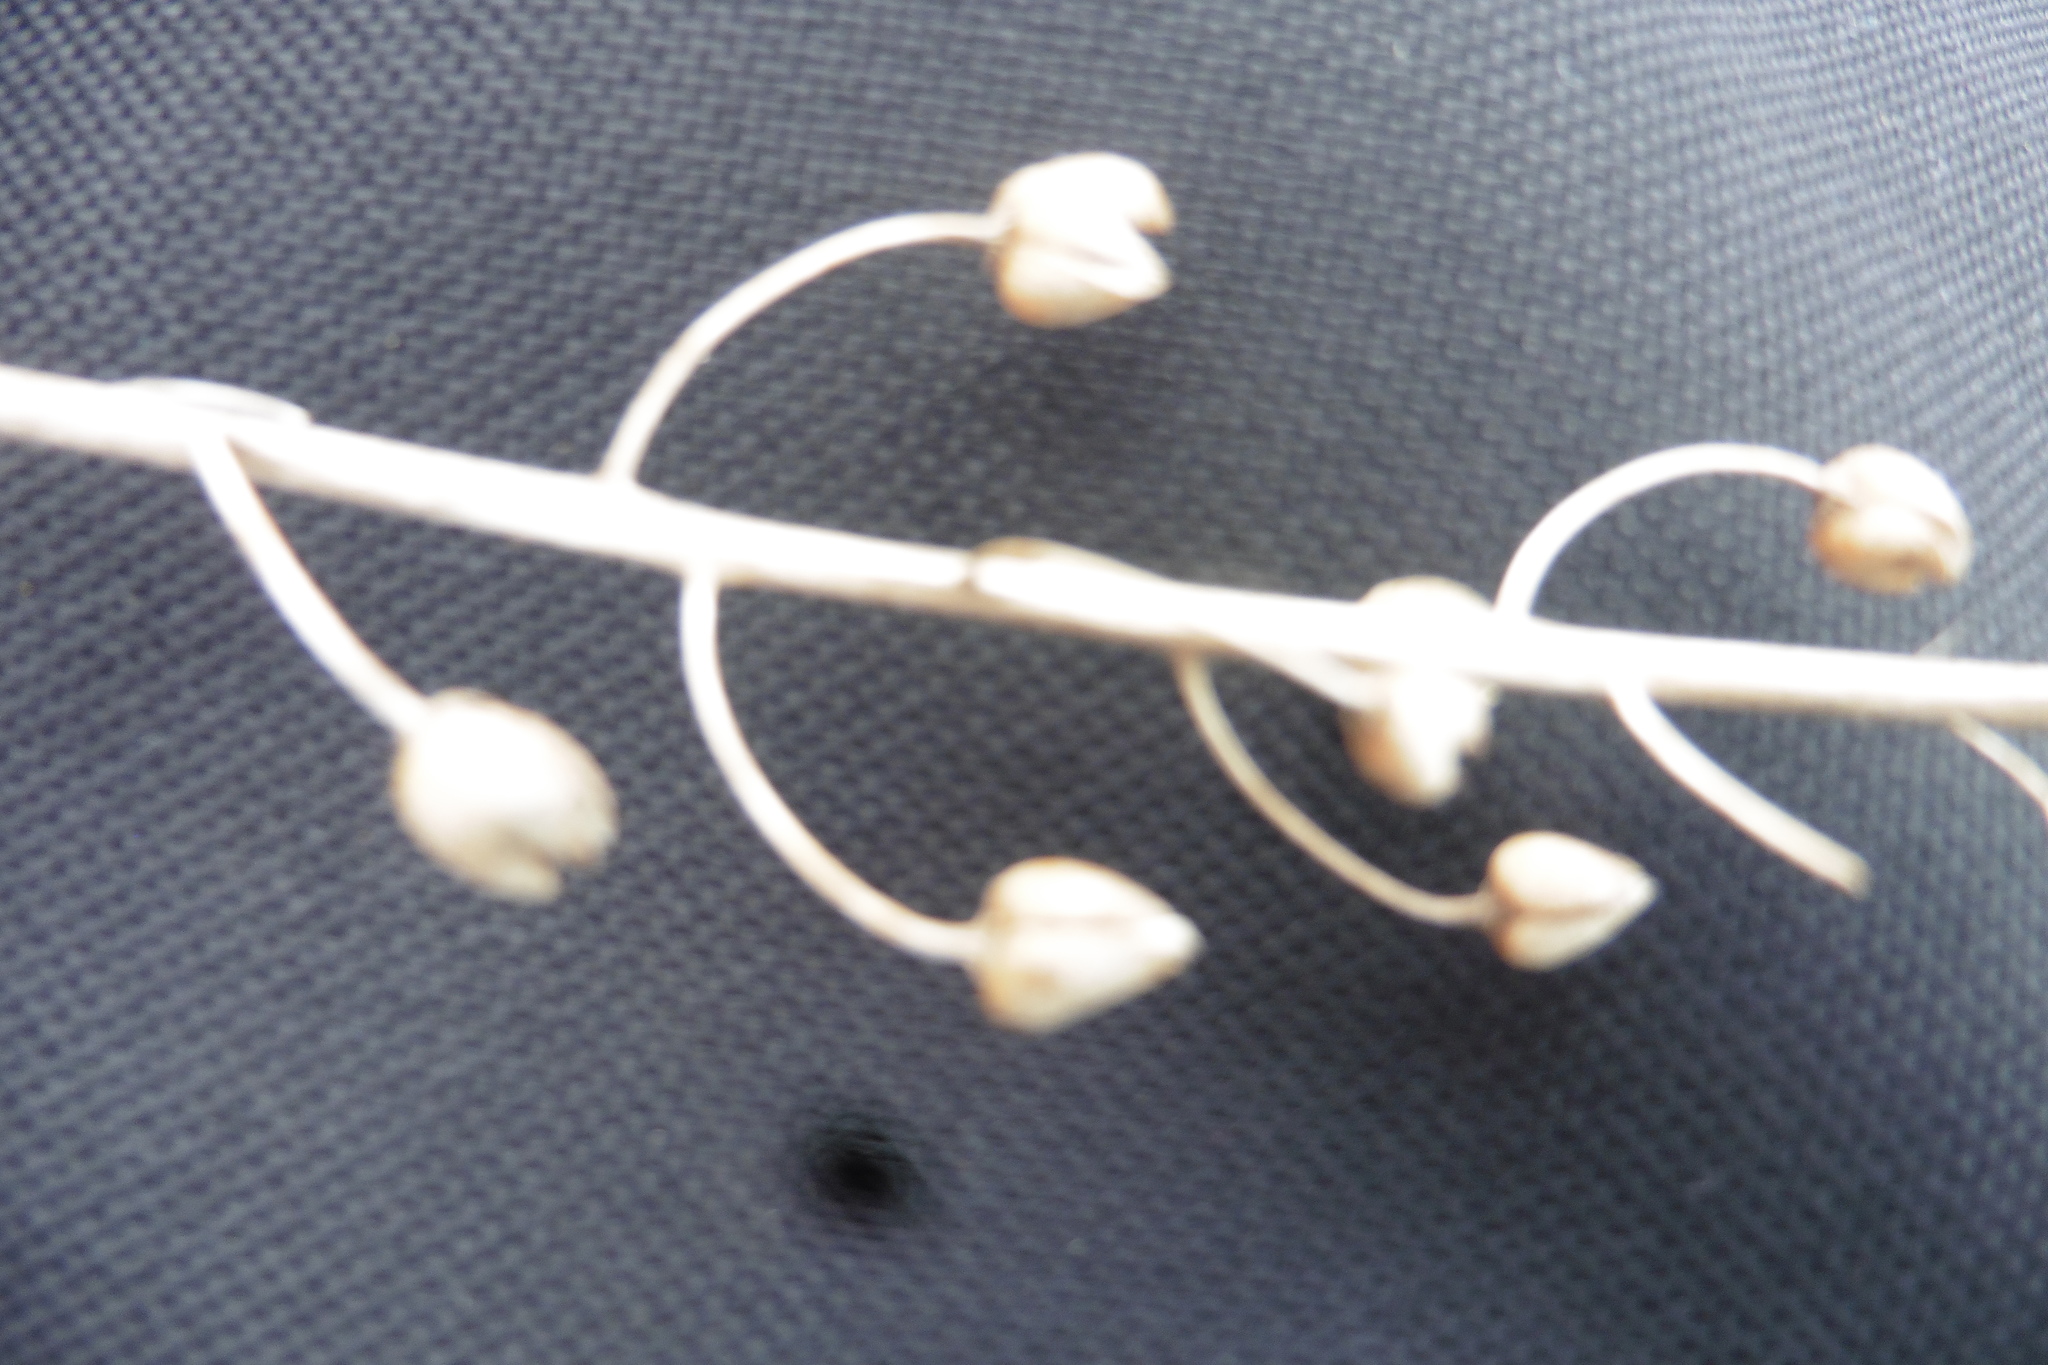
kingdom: Plantae
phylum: Tracheophyta
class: Magnoliopsida
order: Lamiales
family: Scrophulariaceae
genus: Verbascum
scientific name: Verbascum phoeniceum
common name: Purple mullein
